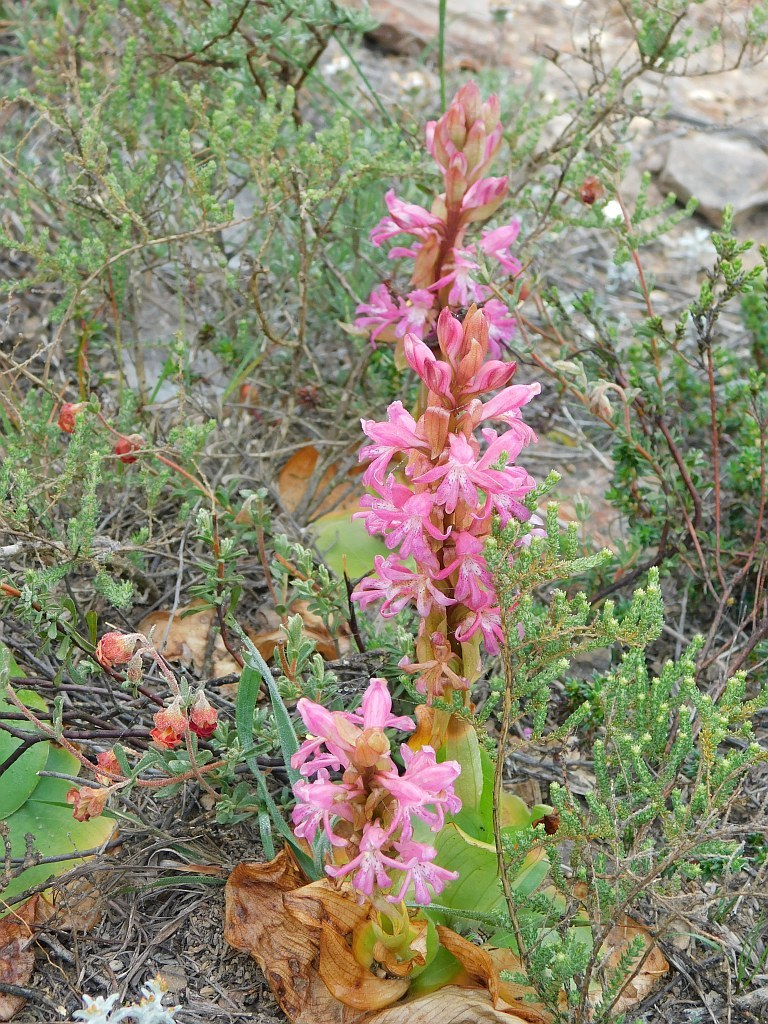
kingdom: Plantae
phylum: Tracheophyta
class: Liliopsida
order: Asparagales
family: Orchidaceae
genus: Satyrium
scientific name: Satyrium erectum
